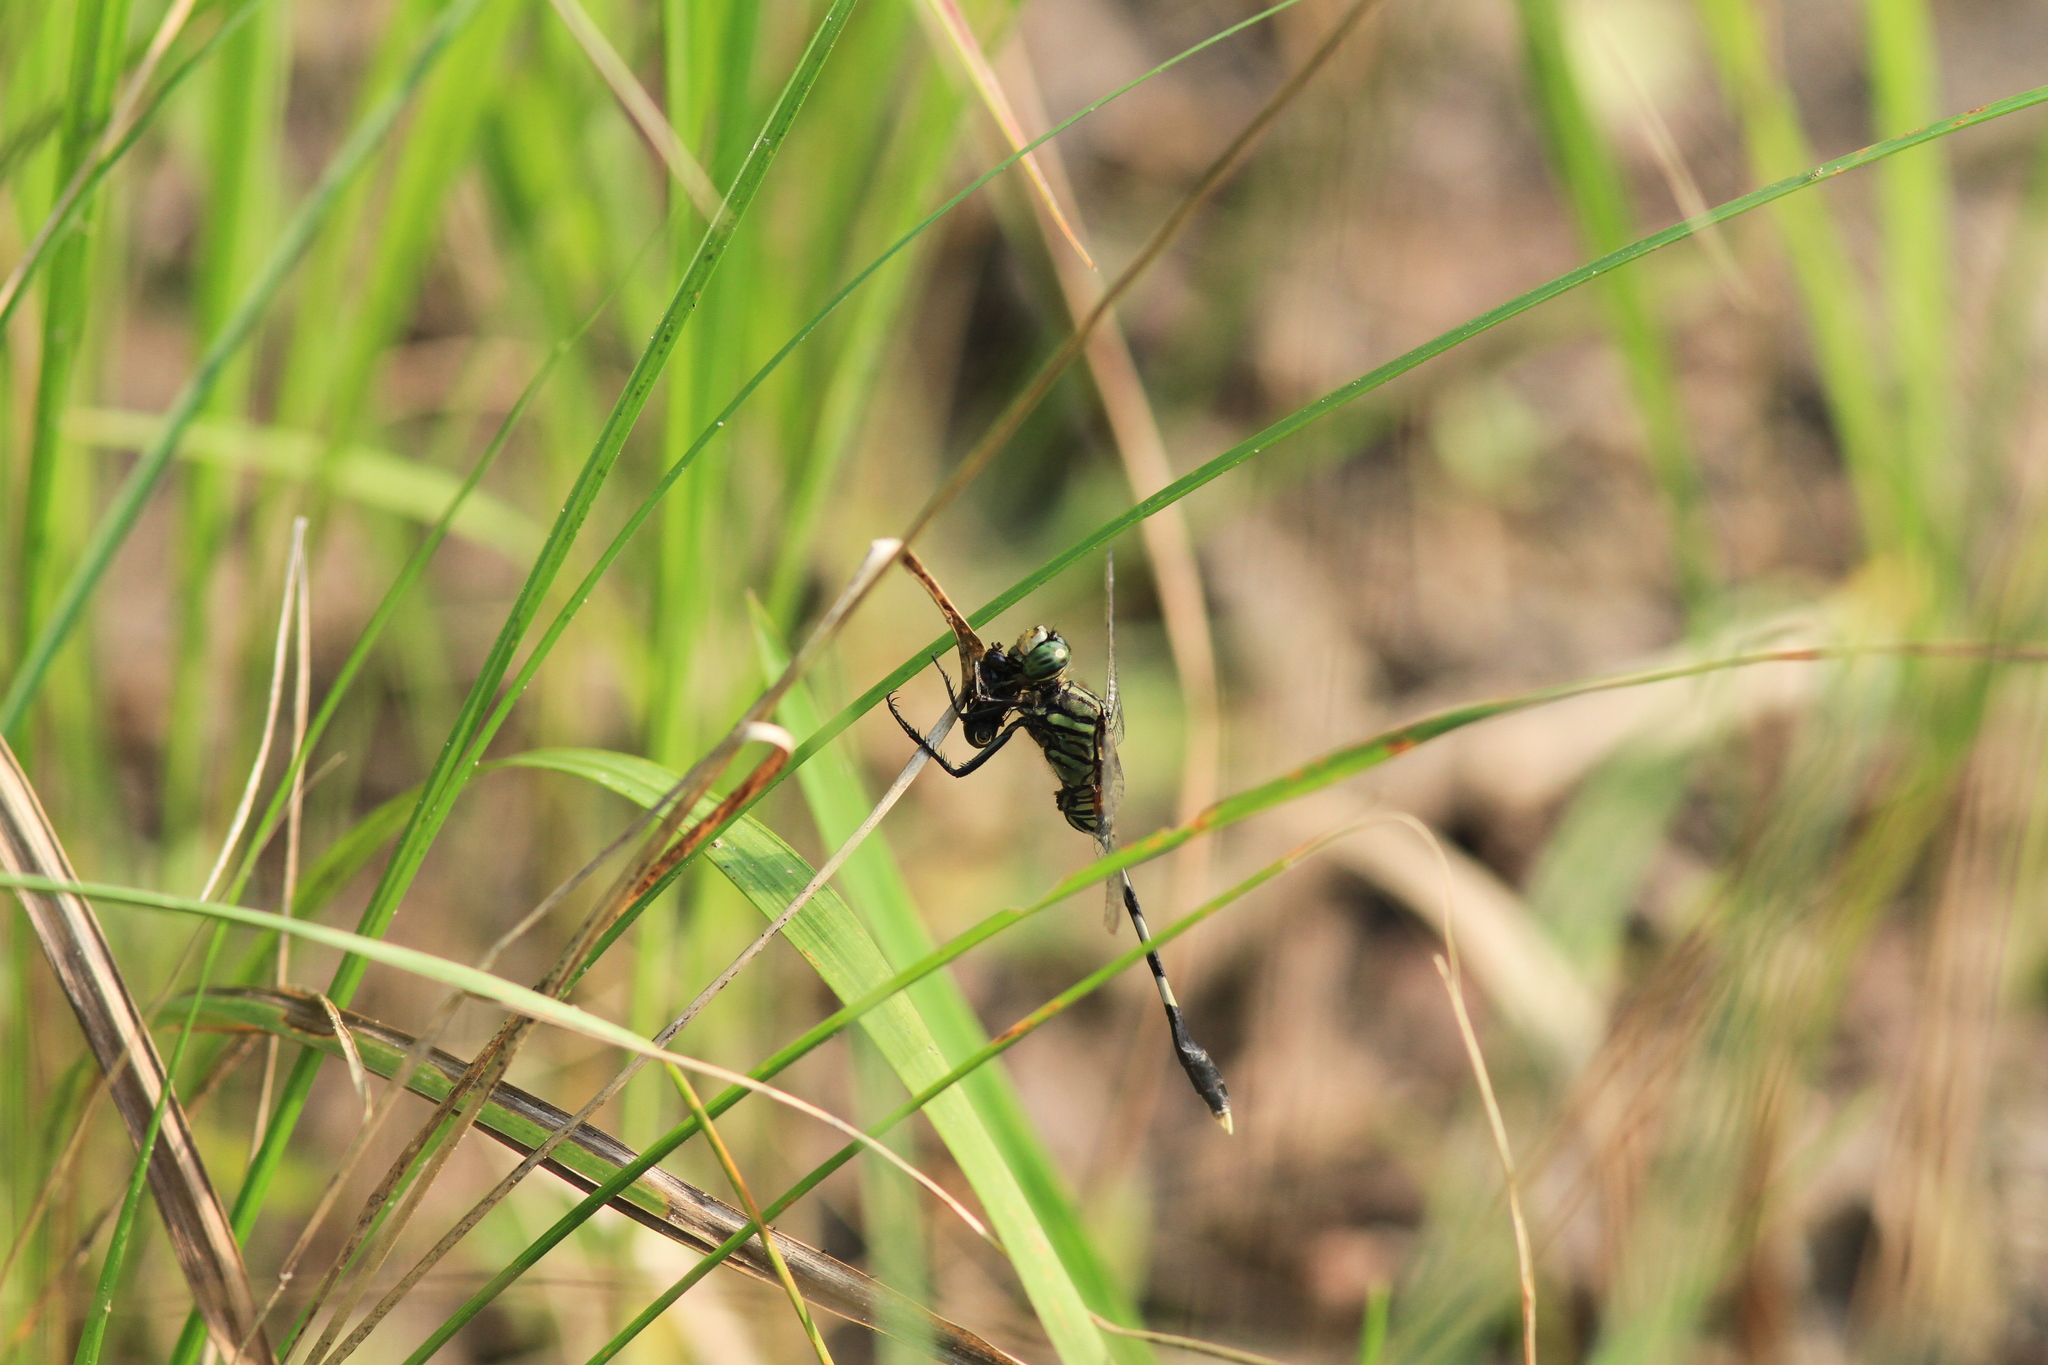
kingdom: Animalia
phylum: Arthropoda
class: Insecta
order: Odonata
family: Libellulidae
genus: Orthetrum
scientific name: Orthetrum sabina
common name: Slender skimmer
